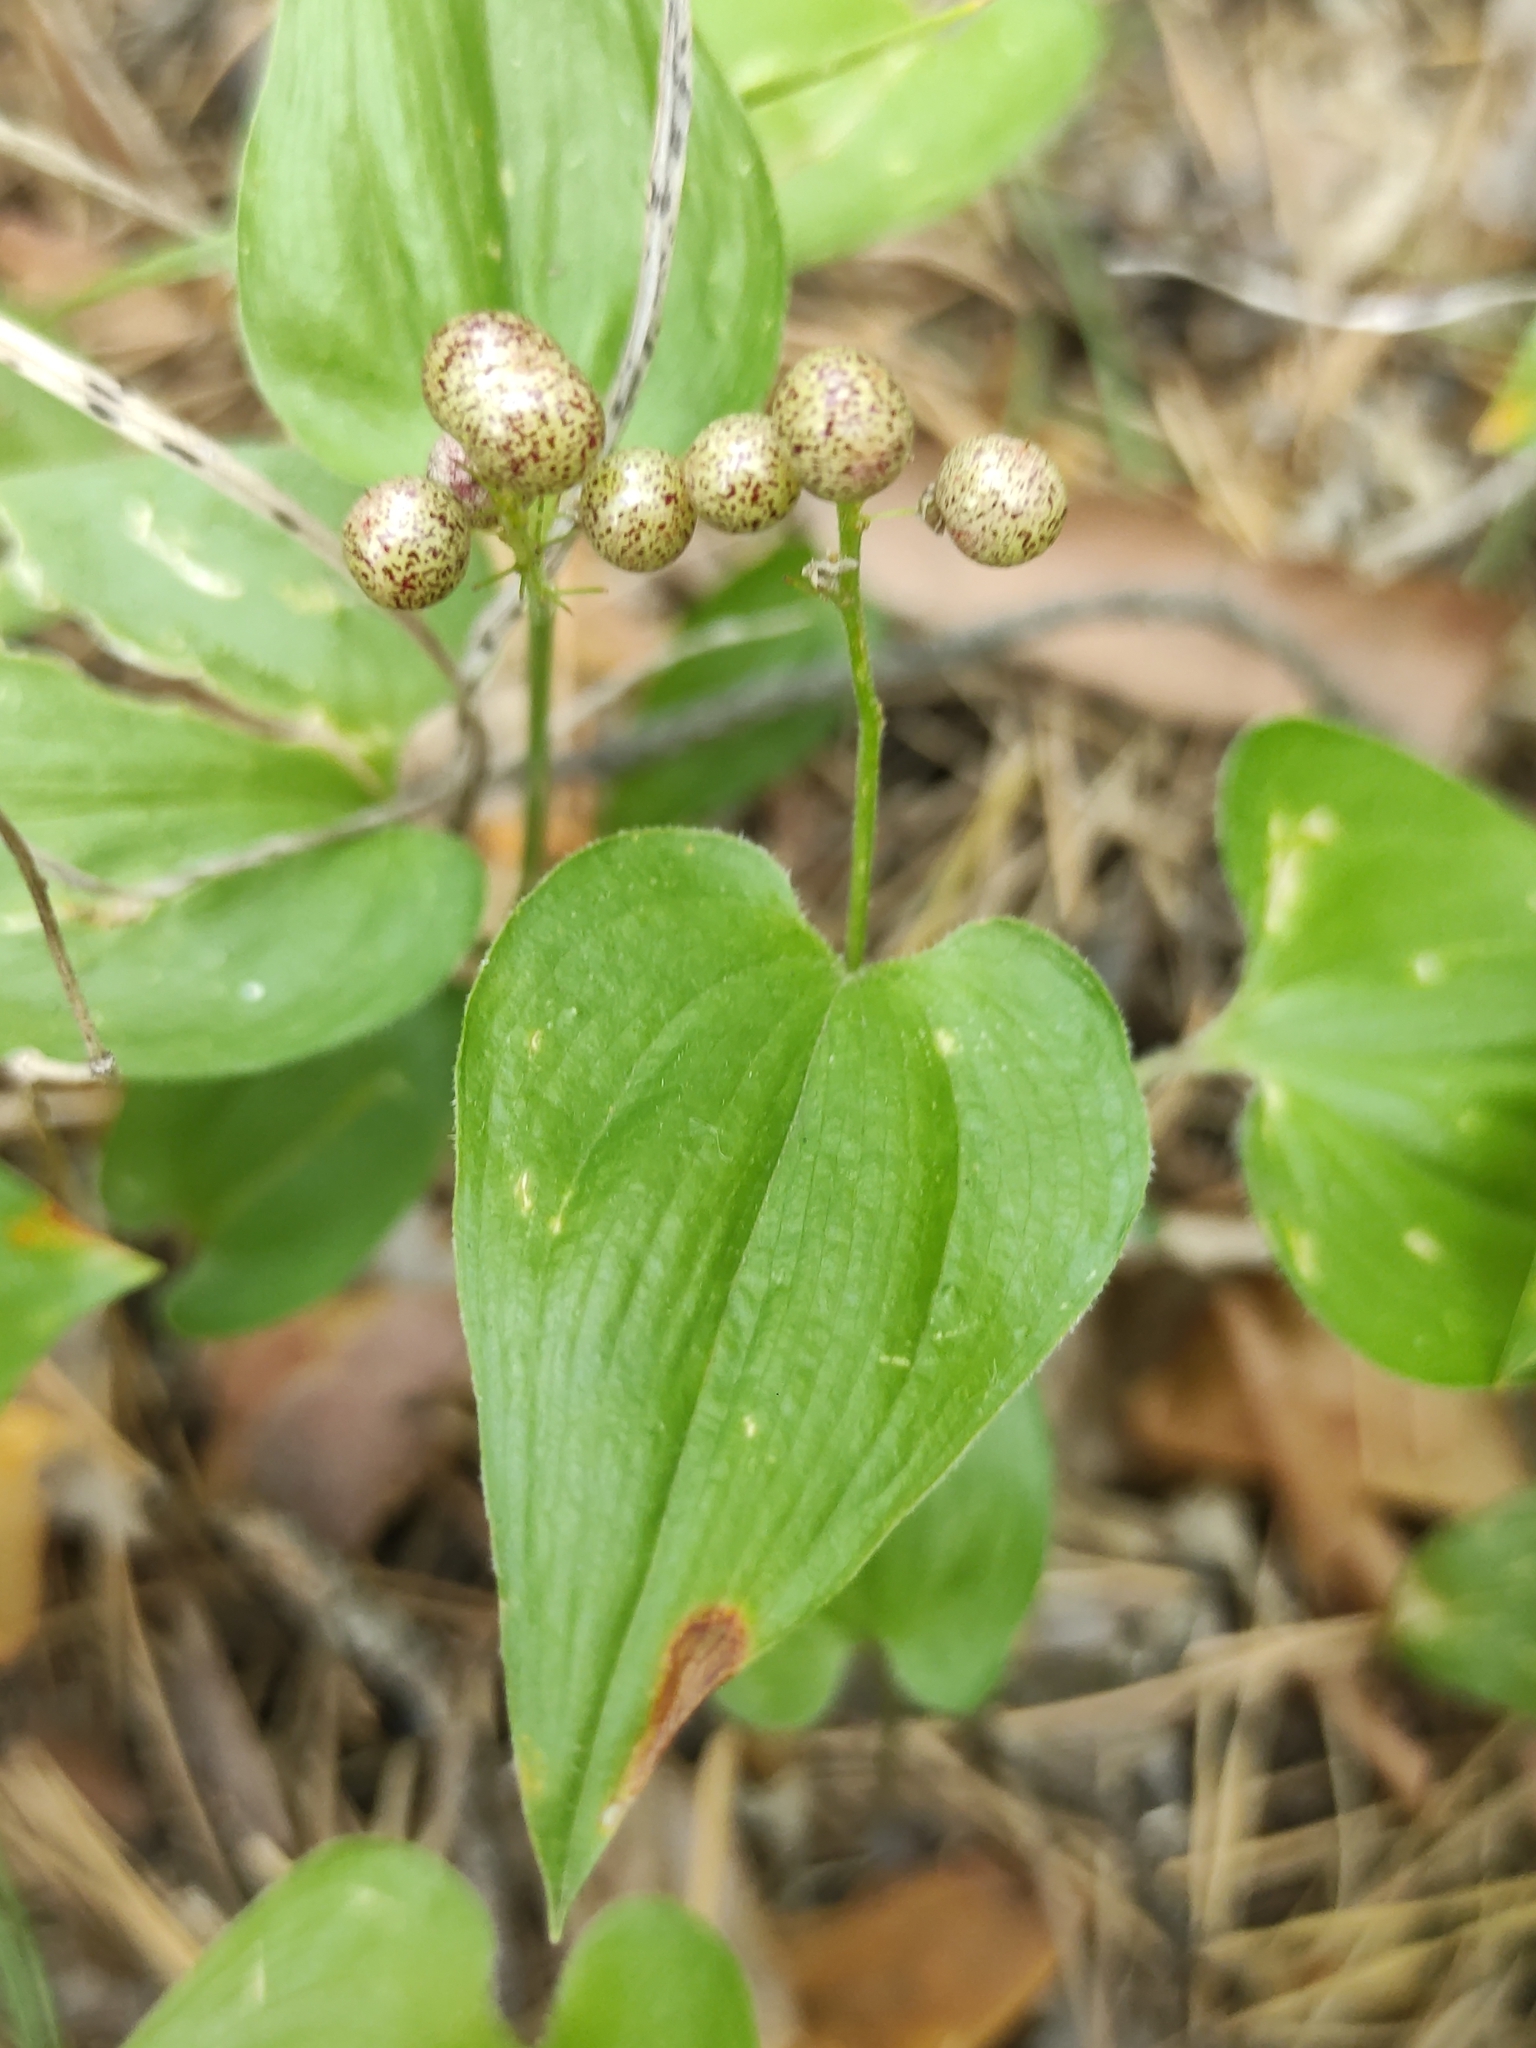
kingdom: Plantae
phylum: Tracheophyta
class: Liliopsida
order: Asparagales
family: Asparagaceae
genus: Maianthemum
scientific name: Maianthemum bifolium
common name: May lily
